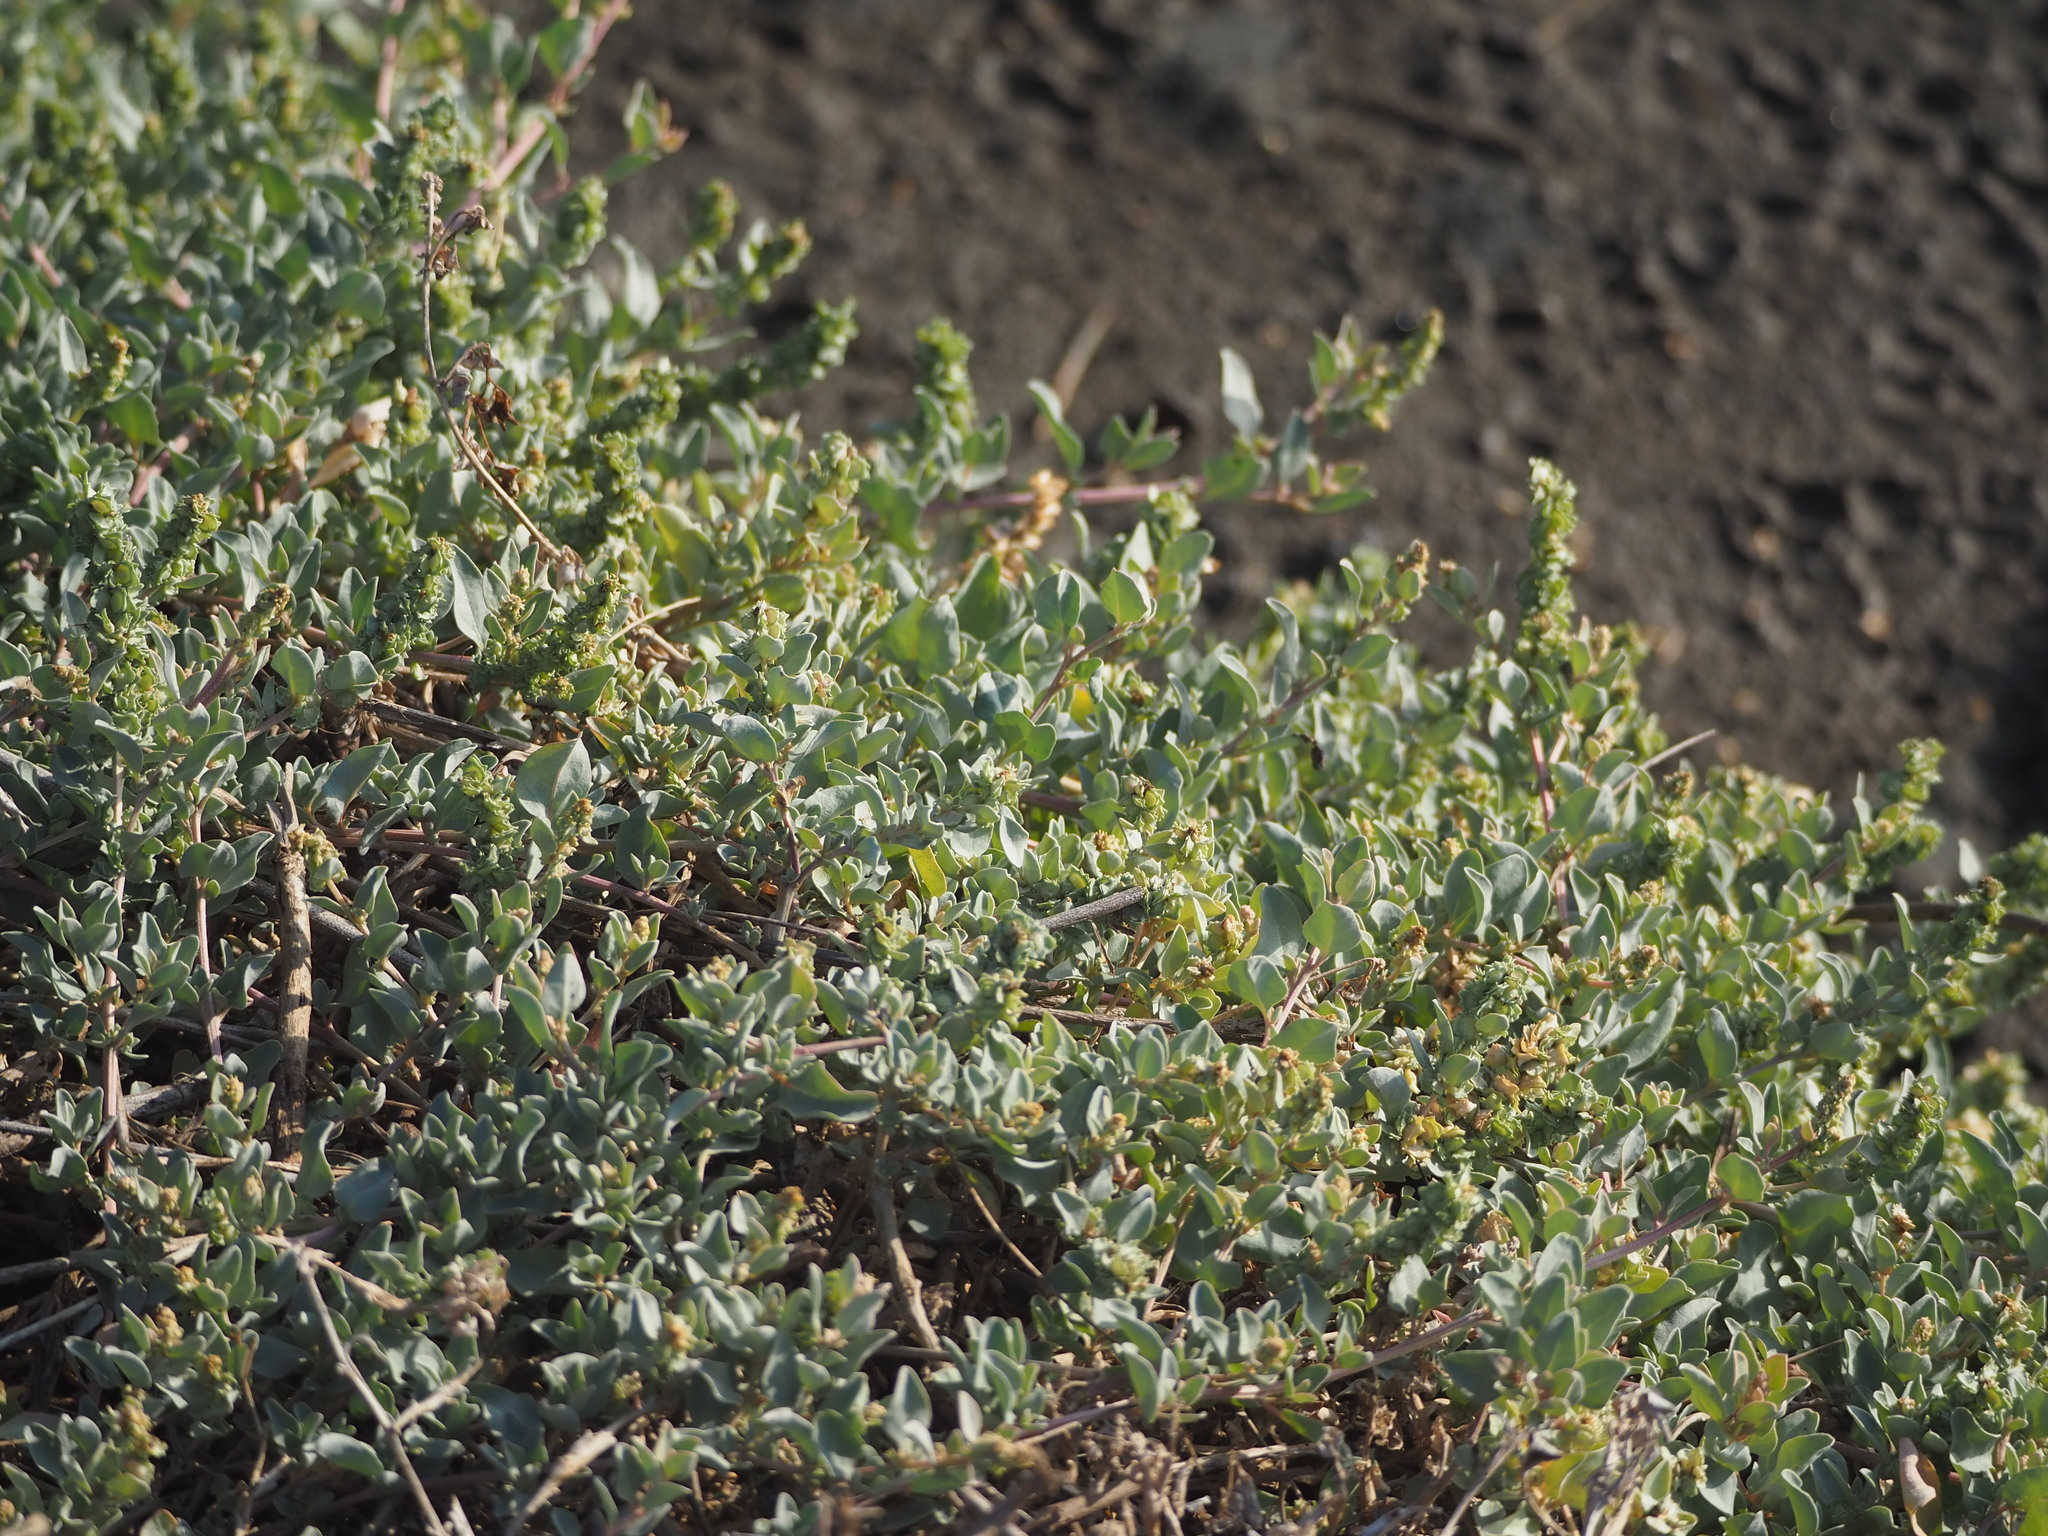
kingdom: Plantae
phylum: Tracheophyta
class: Magnoliopsida
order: Caryophyllales
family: Amaranthaceae
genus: Atriplex
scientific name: Atriplex maximowicziana
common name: Maximowicz's saltbush
